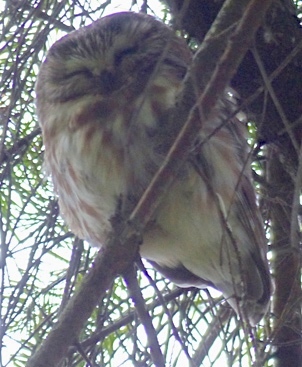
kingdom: Animalia
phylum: Chordata
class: Aves
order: Strigiformes
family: Strigidae
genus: Aegolius
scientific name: Aegolius acadicus
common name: Northern saw-whet owl
